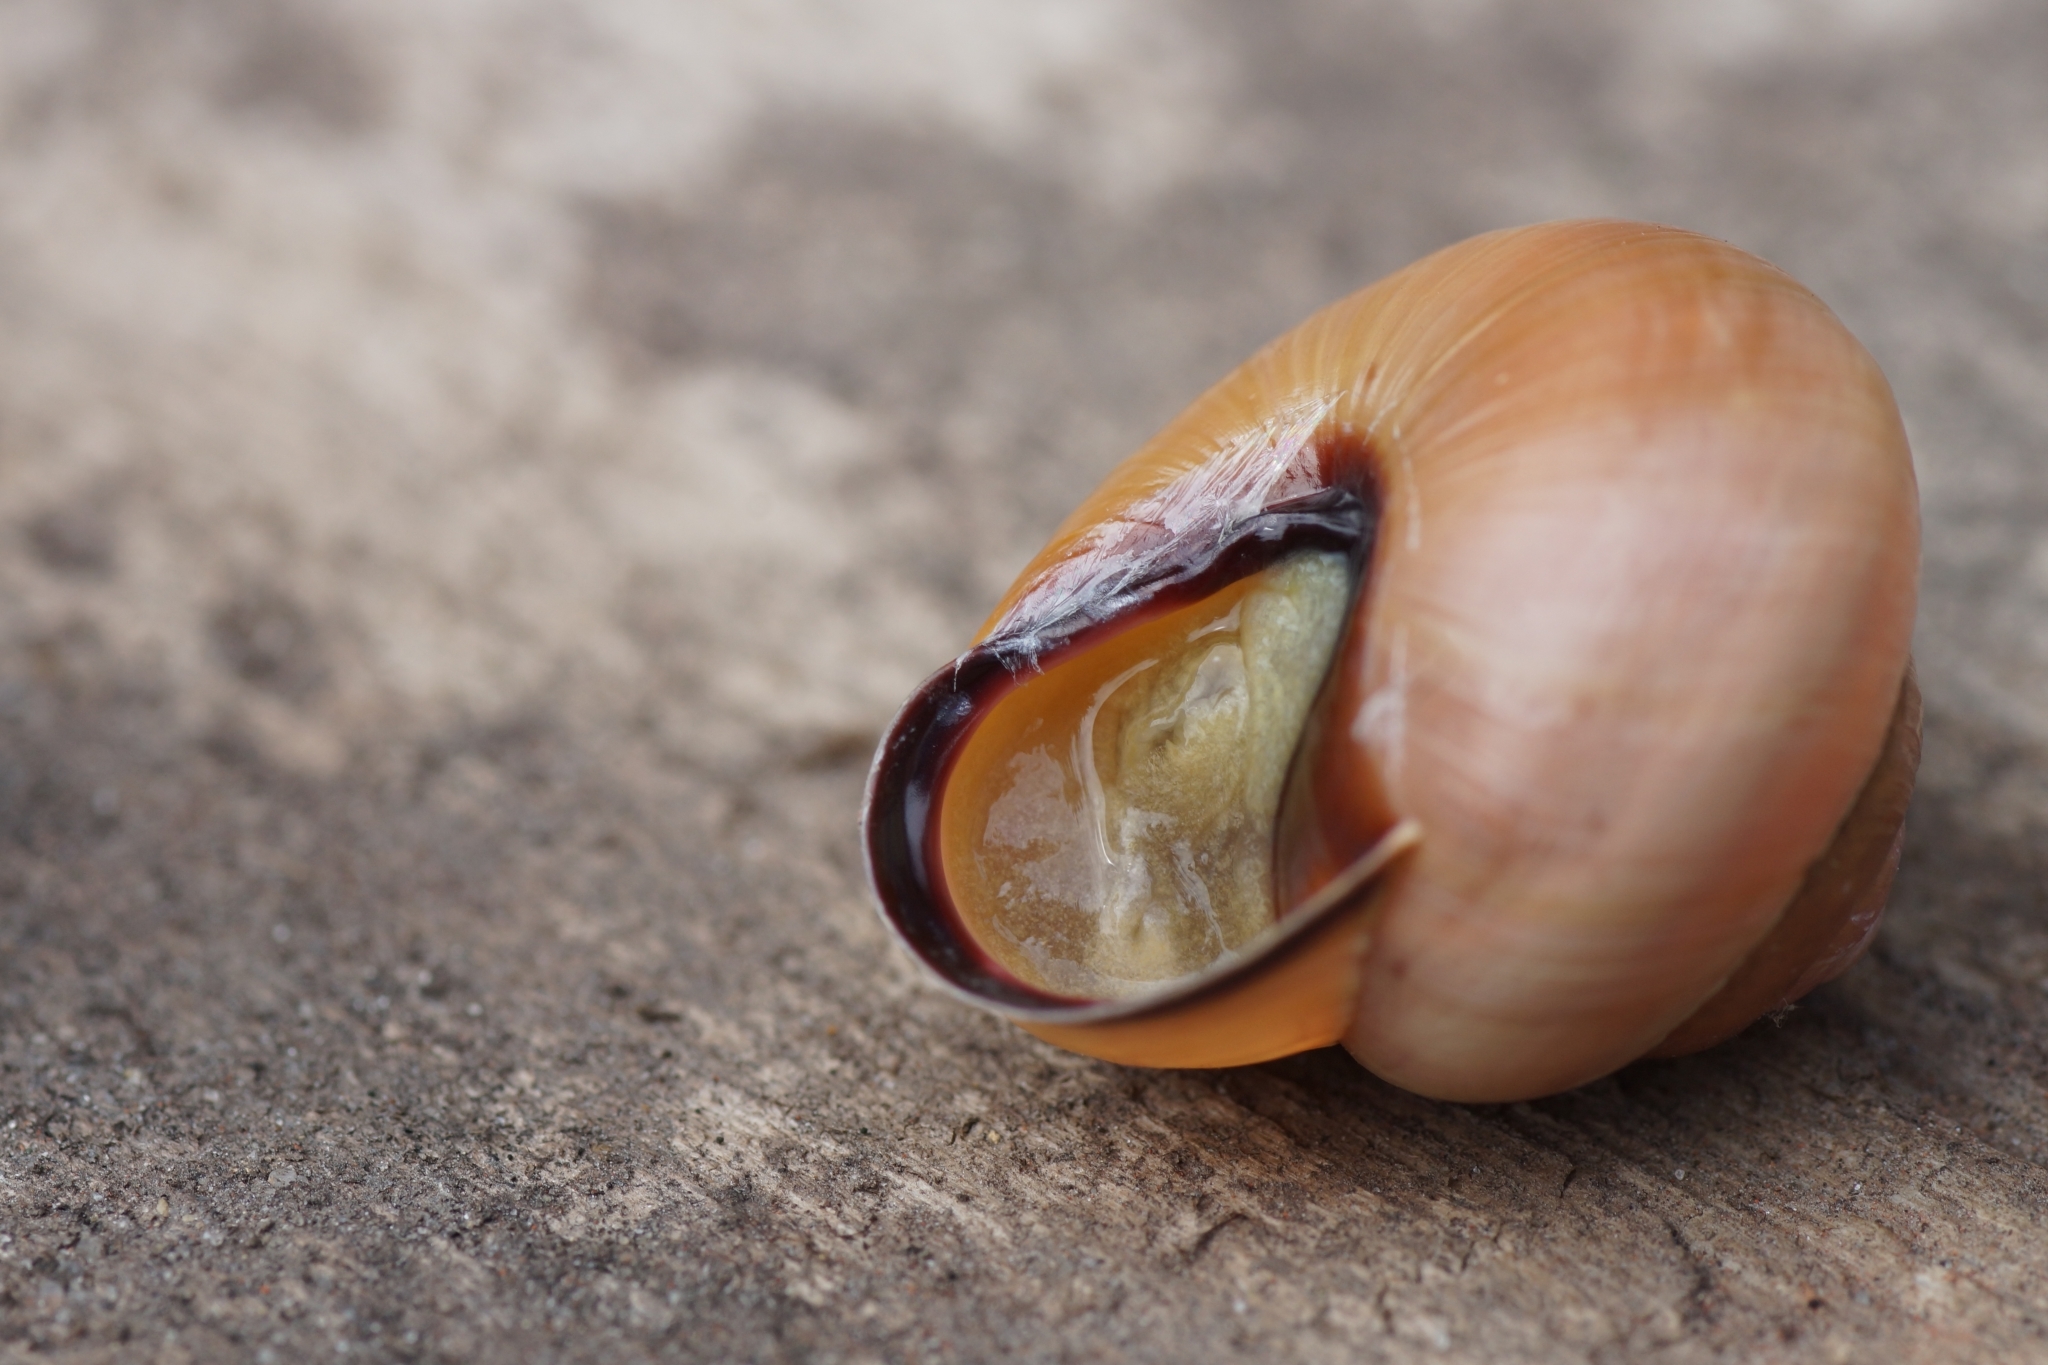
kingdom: Animalia
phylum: Mollusca
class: Gastropoda
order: Stylommatophora
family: Helicidae
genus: Cepaea
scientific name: Cepaea nemoralis
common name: Grovesnail
